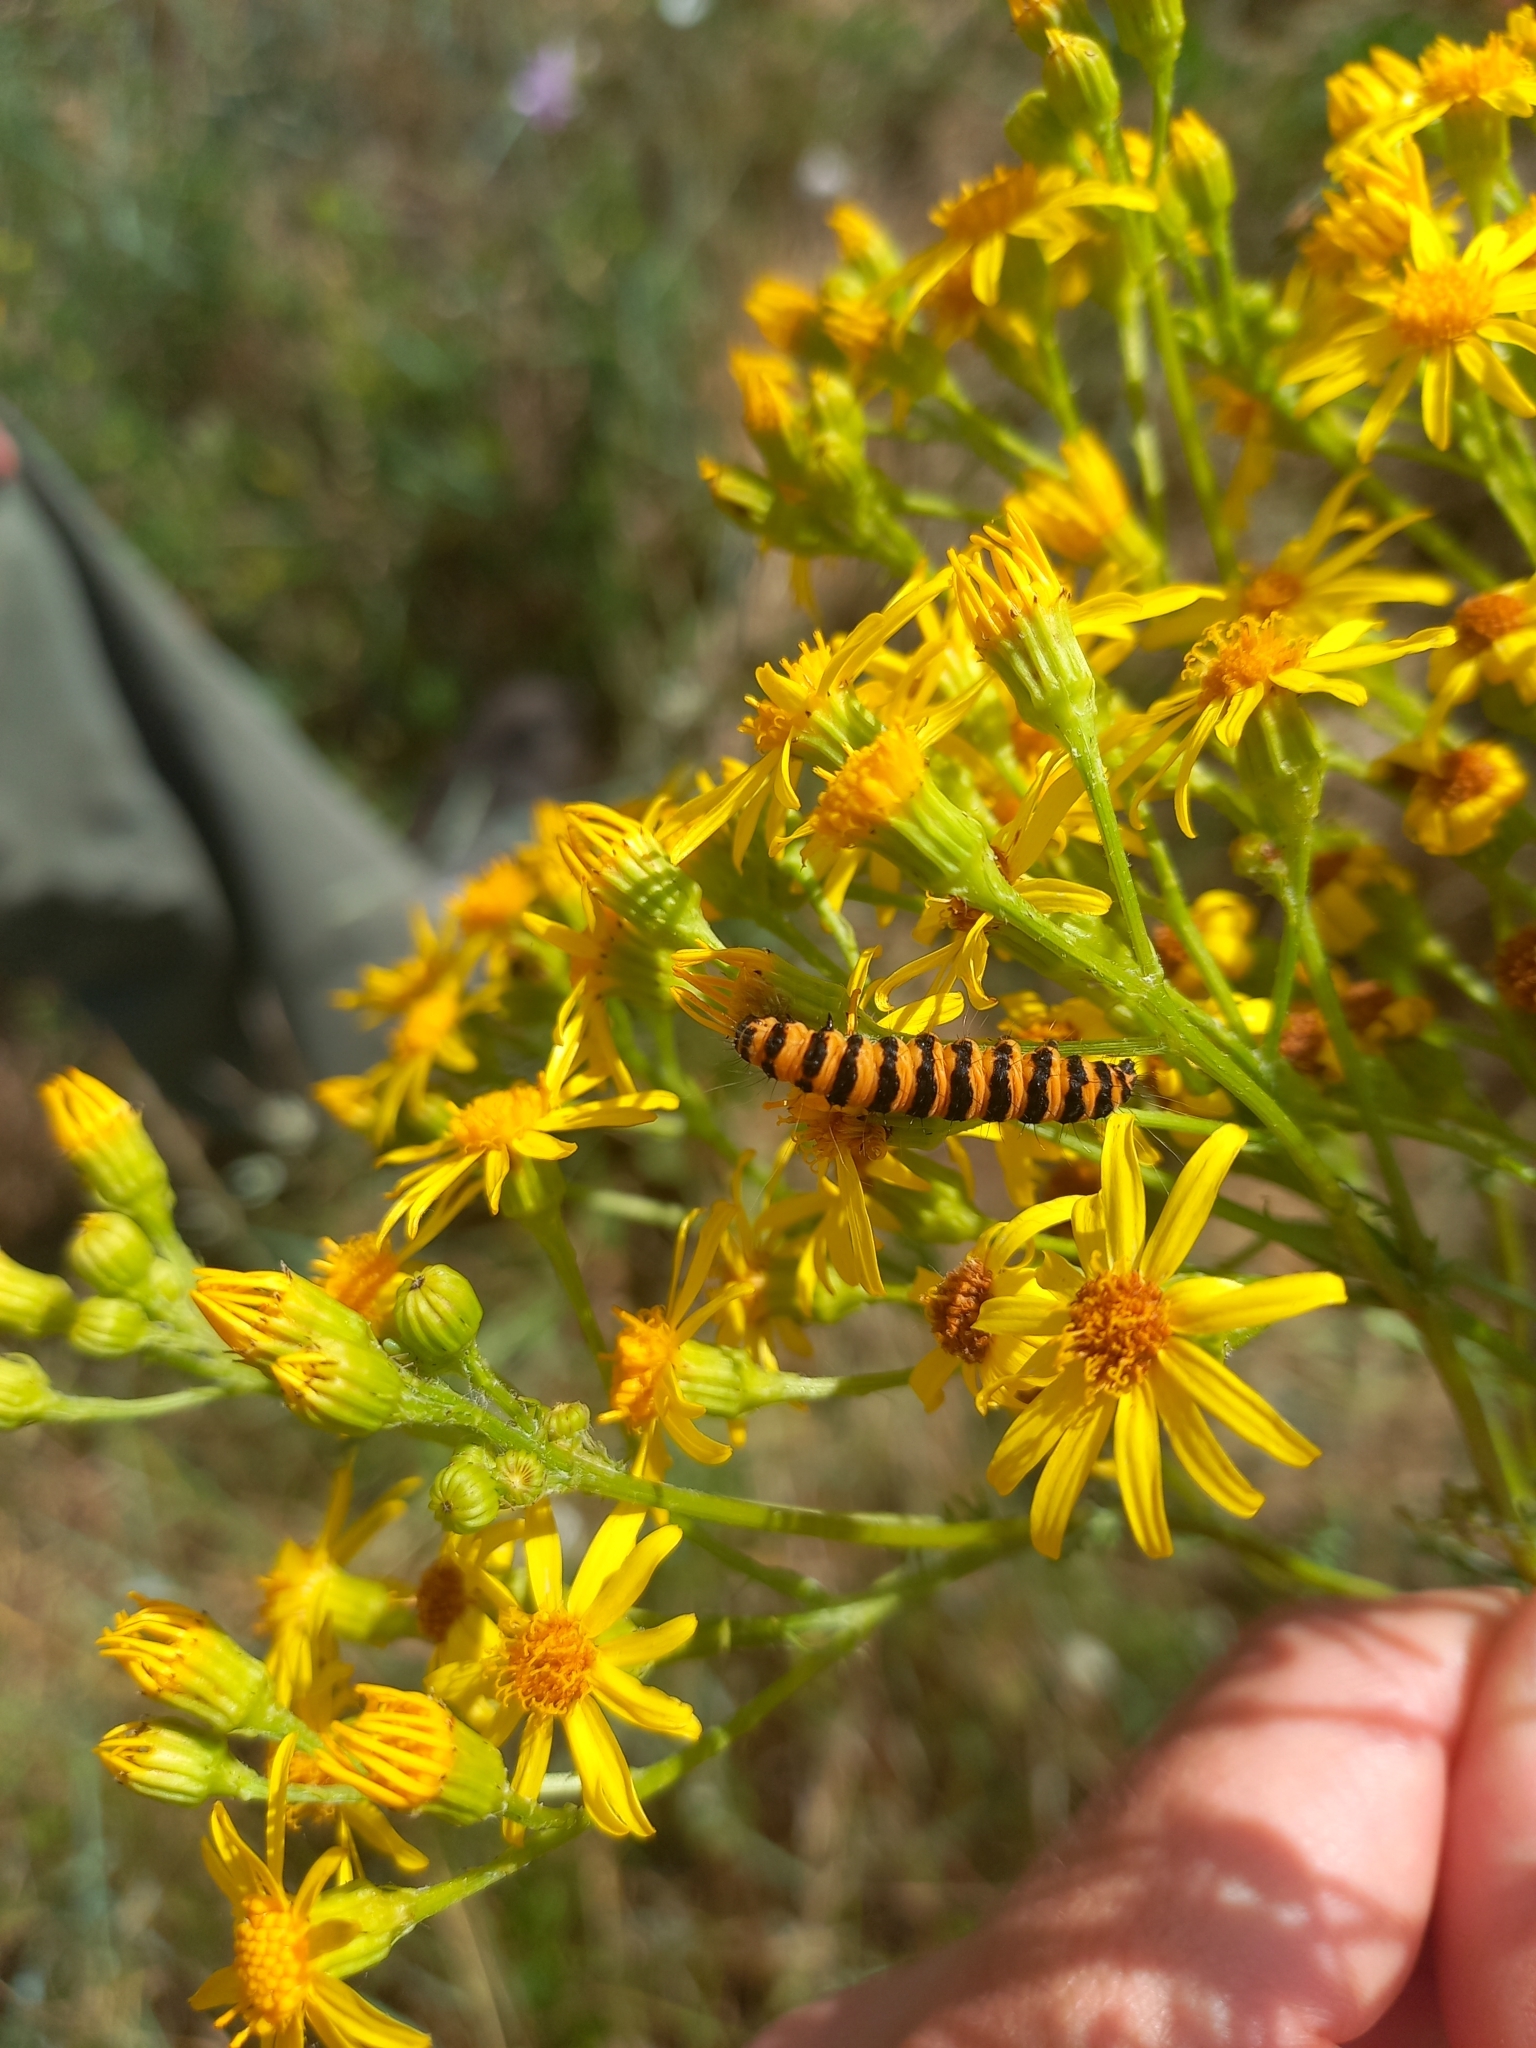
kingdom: Animalia
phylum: Arthropoda
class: Insecta
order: Lepidoptera
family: Erebidae
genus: Tyria
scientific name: Tyria jacobaeae
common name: Cinnabar
